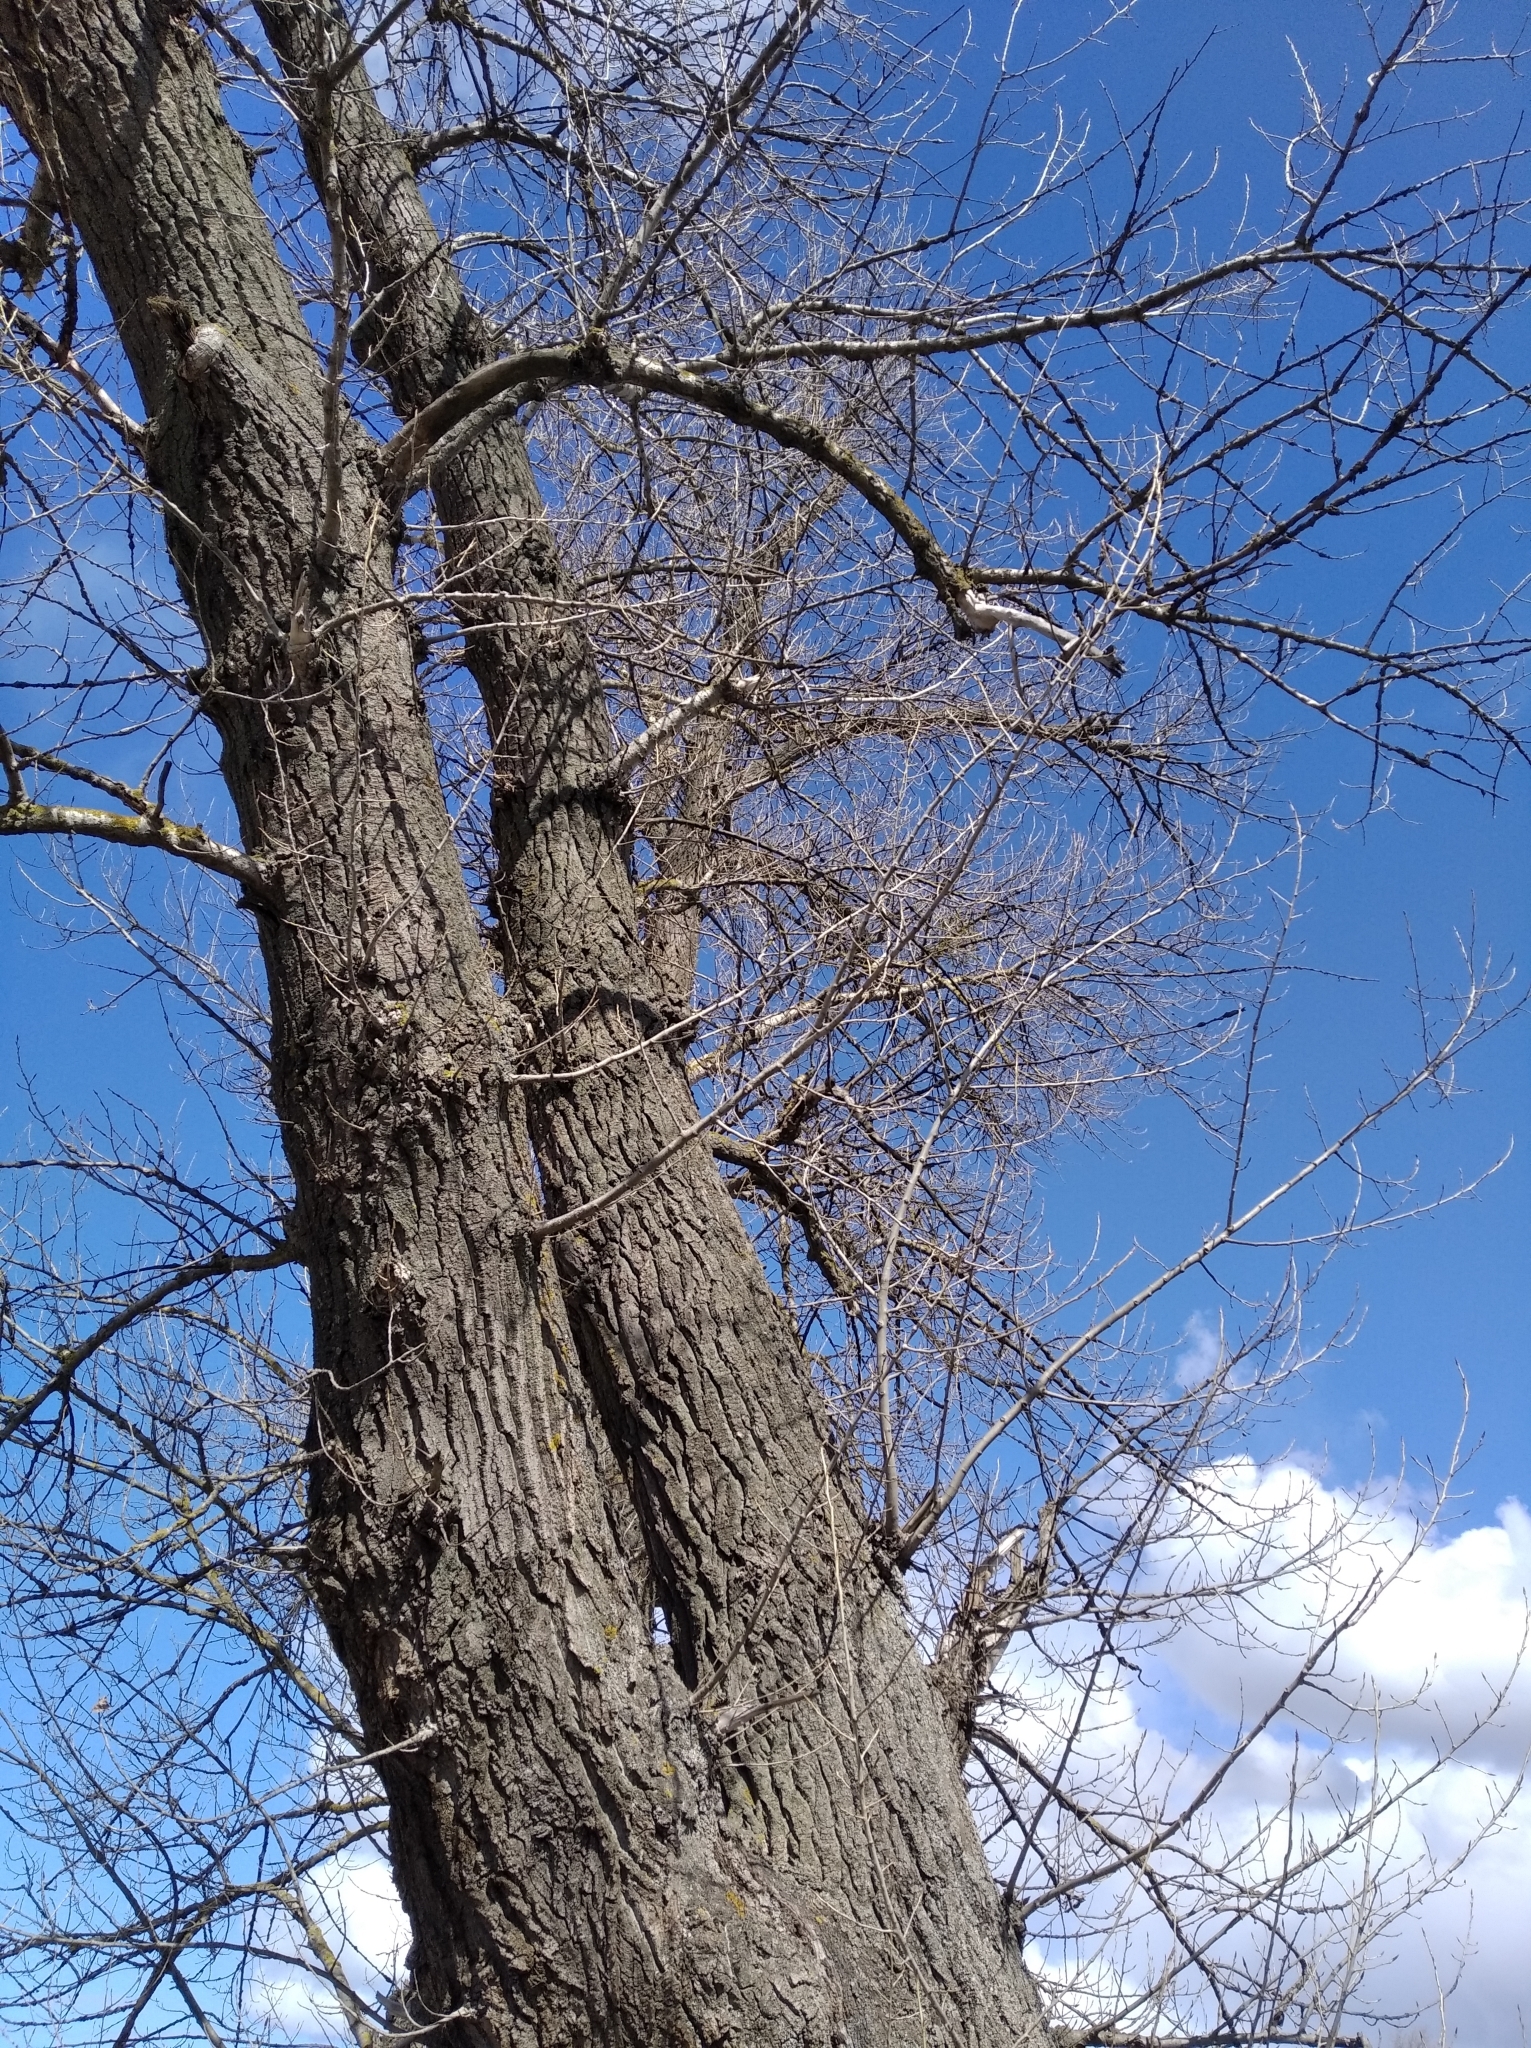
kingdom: Plantae
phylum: Tracheophyta
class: Magnoliopsida
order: Malpighiales
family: Salicaceae
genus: Populus
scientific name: Populus nigra
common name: Black poplar
